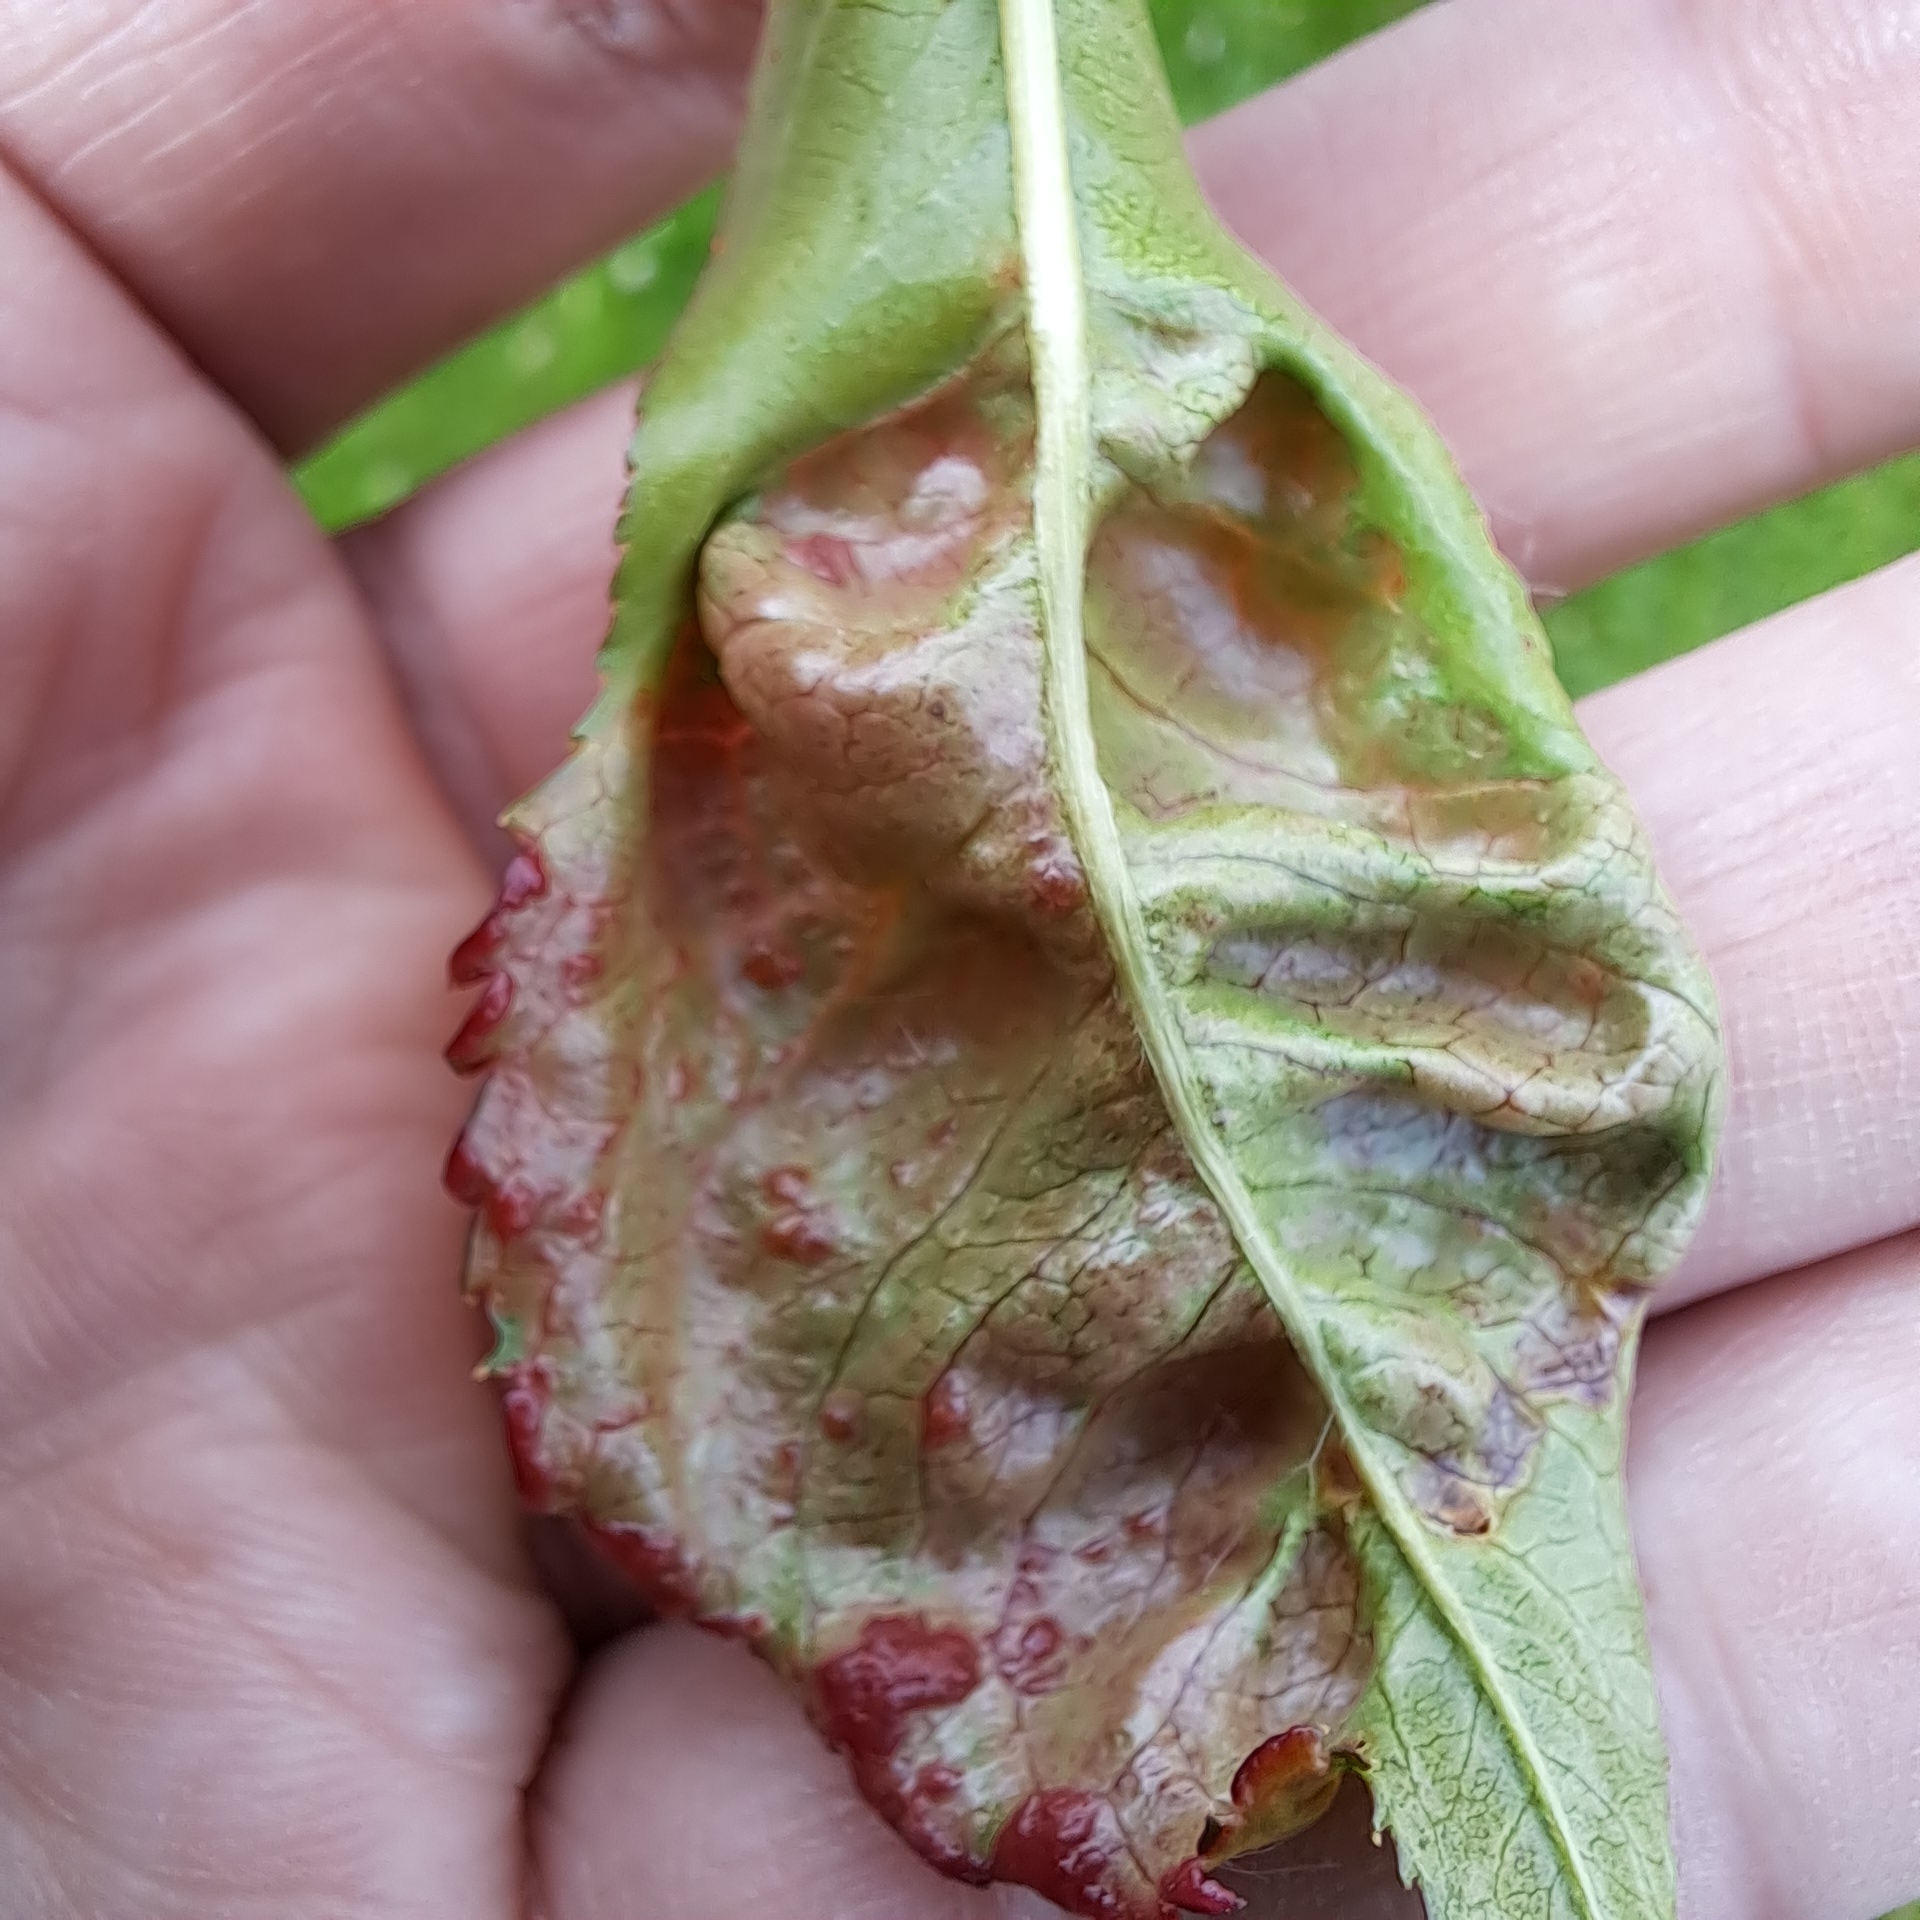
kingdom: Fungi
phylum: Ascomycota
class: Taphrinomycetes
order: Taphrinales
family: Taphrinaceae
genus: Taphrina
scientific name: Taphrina deformans
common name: Peach leaf curl
